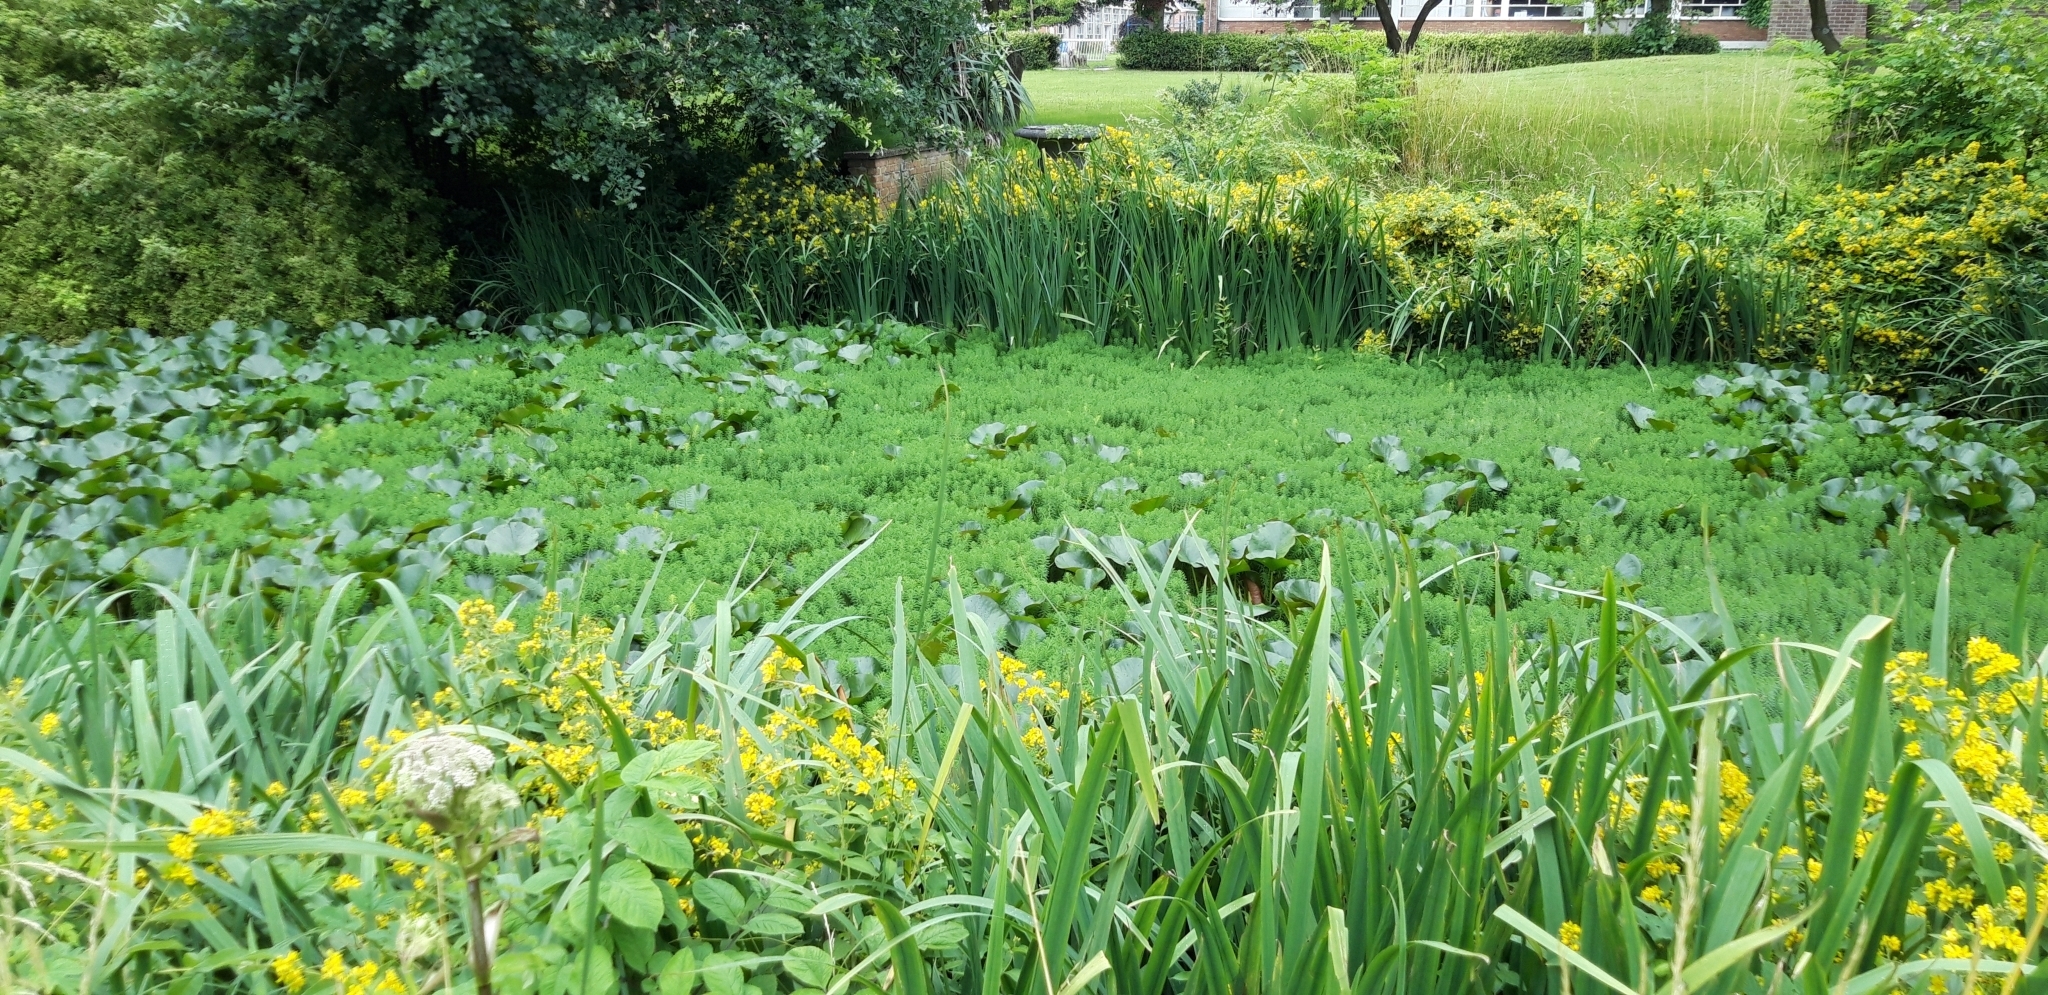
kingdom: Plantae
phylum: Tracheophyta
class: Magnoliopsida
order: Saxifragales
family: Haloragaceae
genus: Myriophyllum
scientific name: Myriophyllum aquaticum
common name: Parrot's feather
